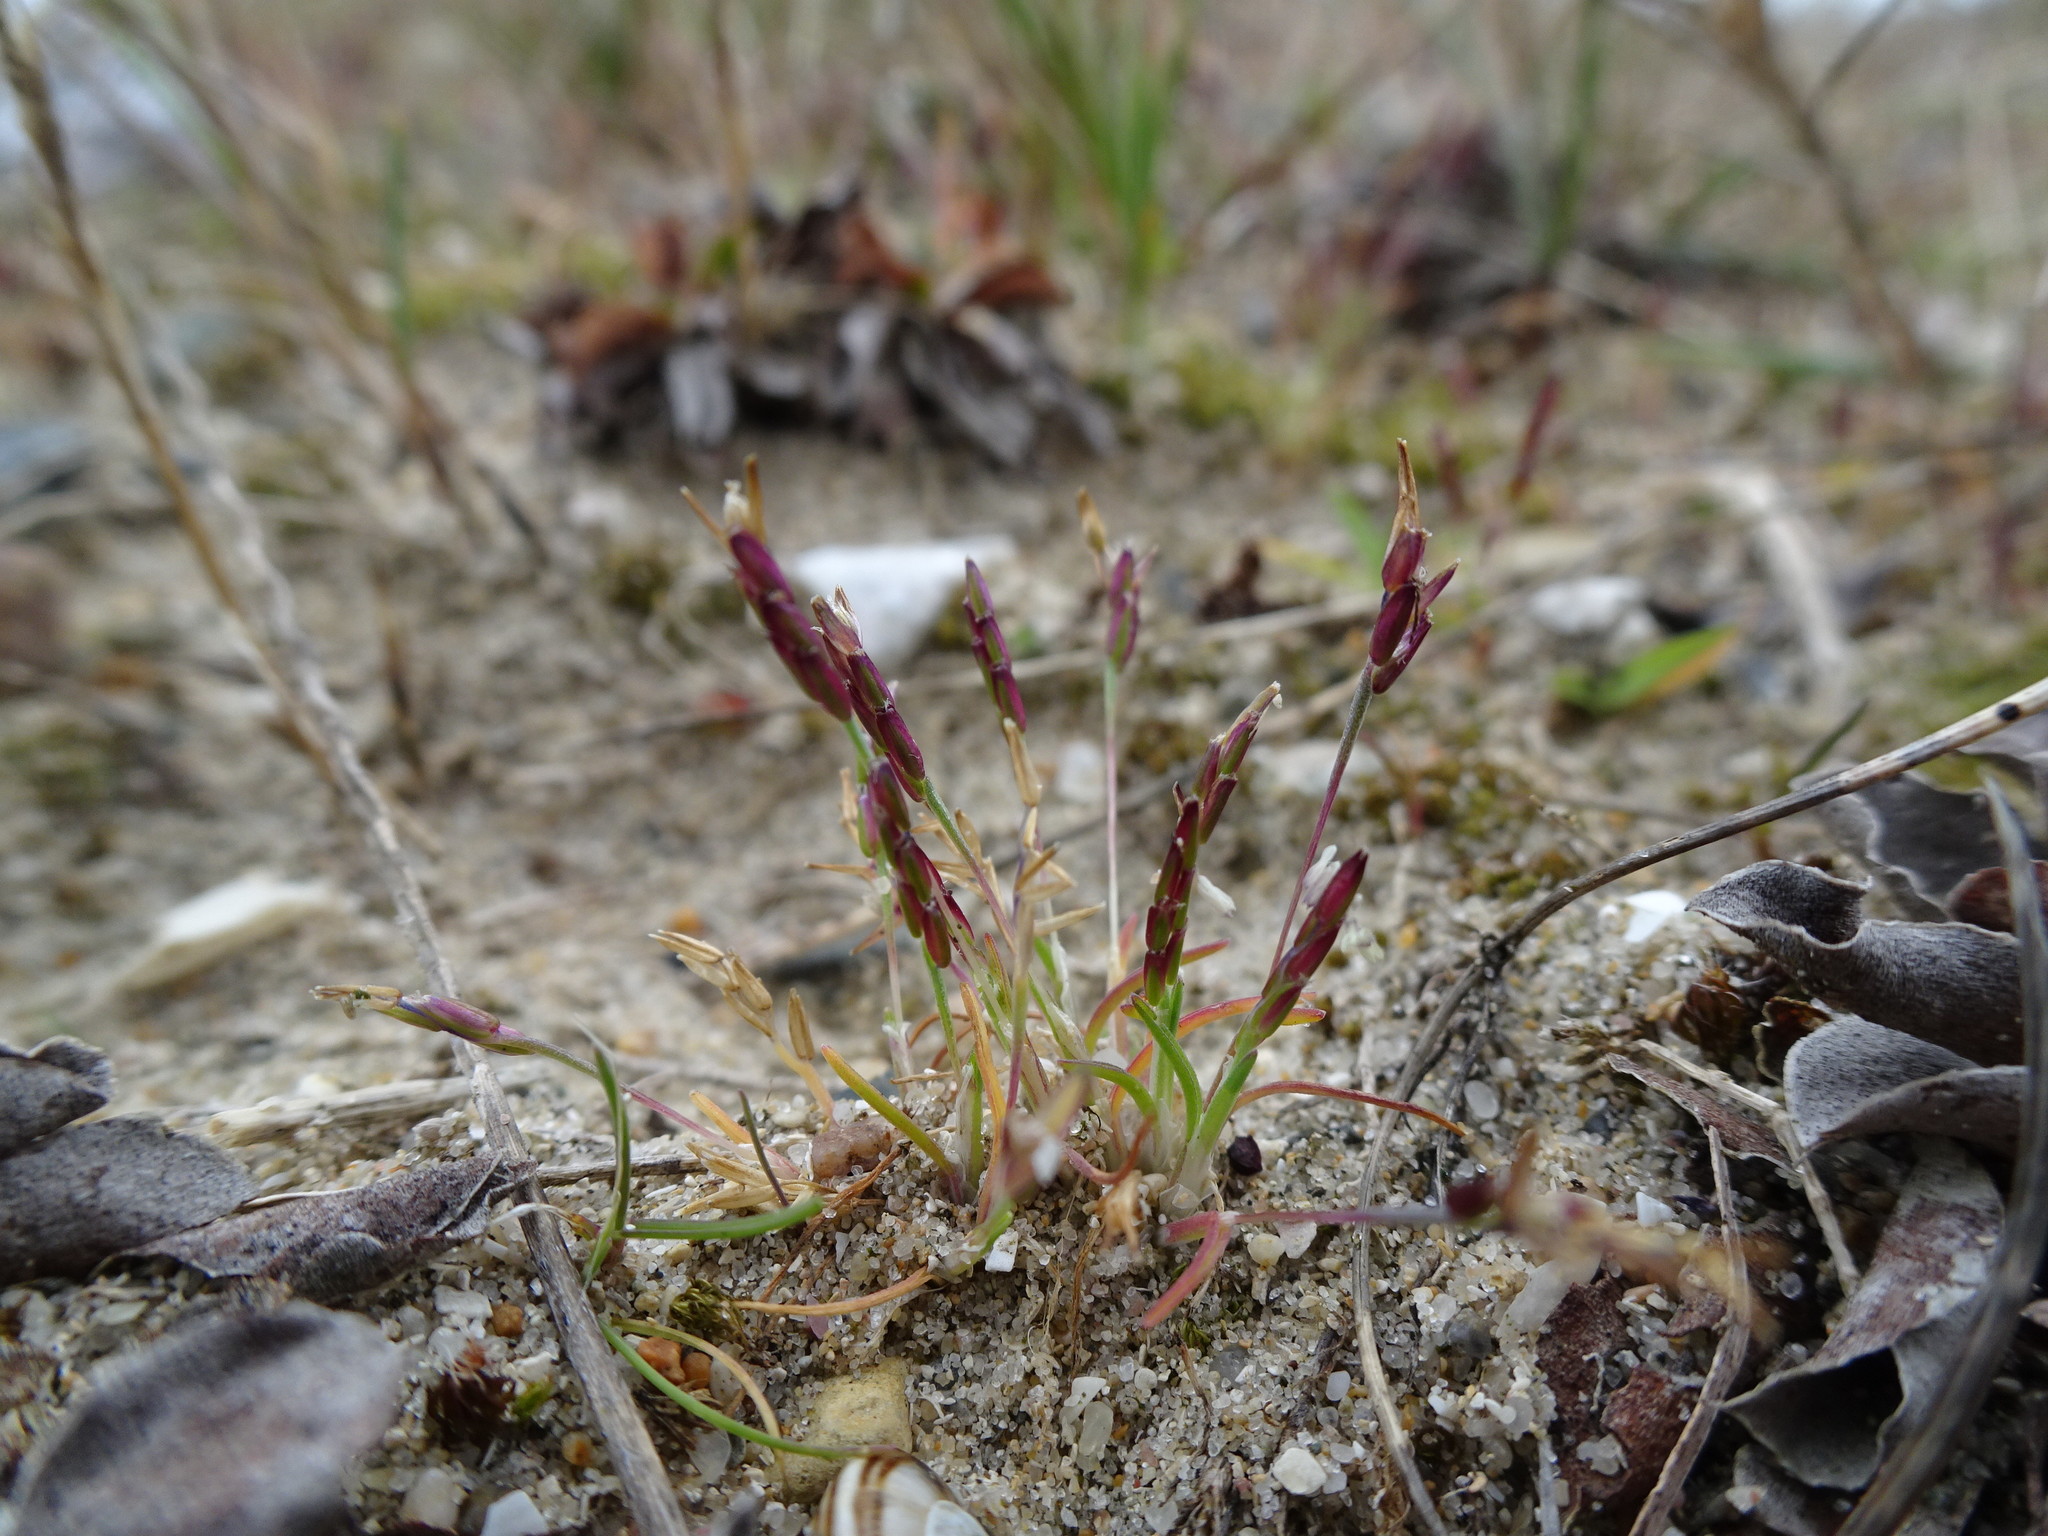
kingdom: Plantae
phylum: Tracheophyta
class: Liliopsida
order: Poales
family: Poaceae
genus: Mibora
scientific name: Mibora minima
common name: Early sand-grass
